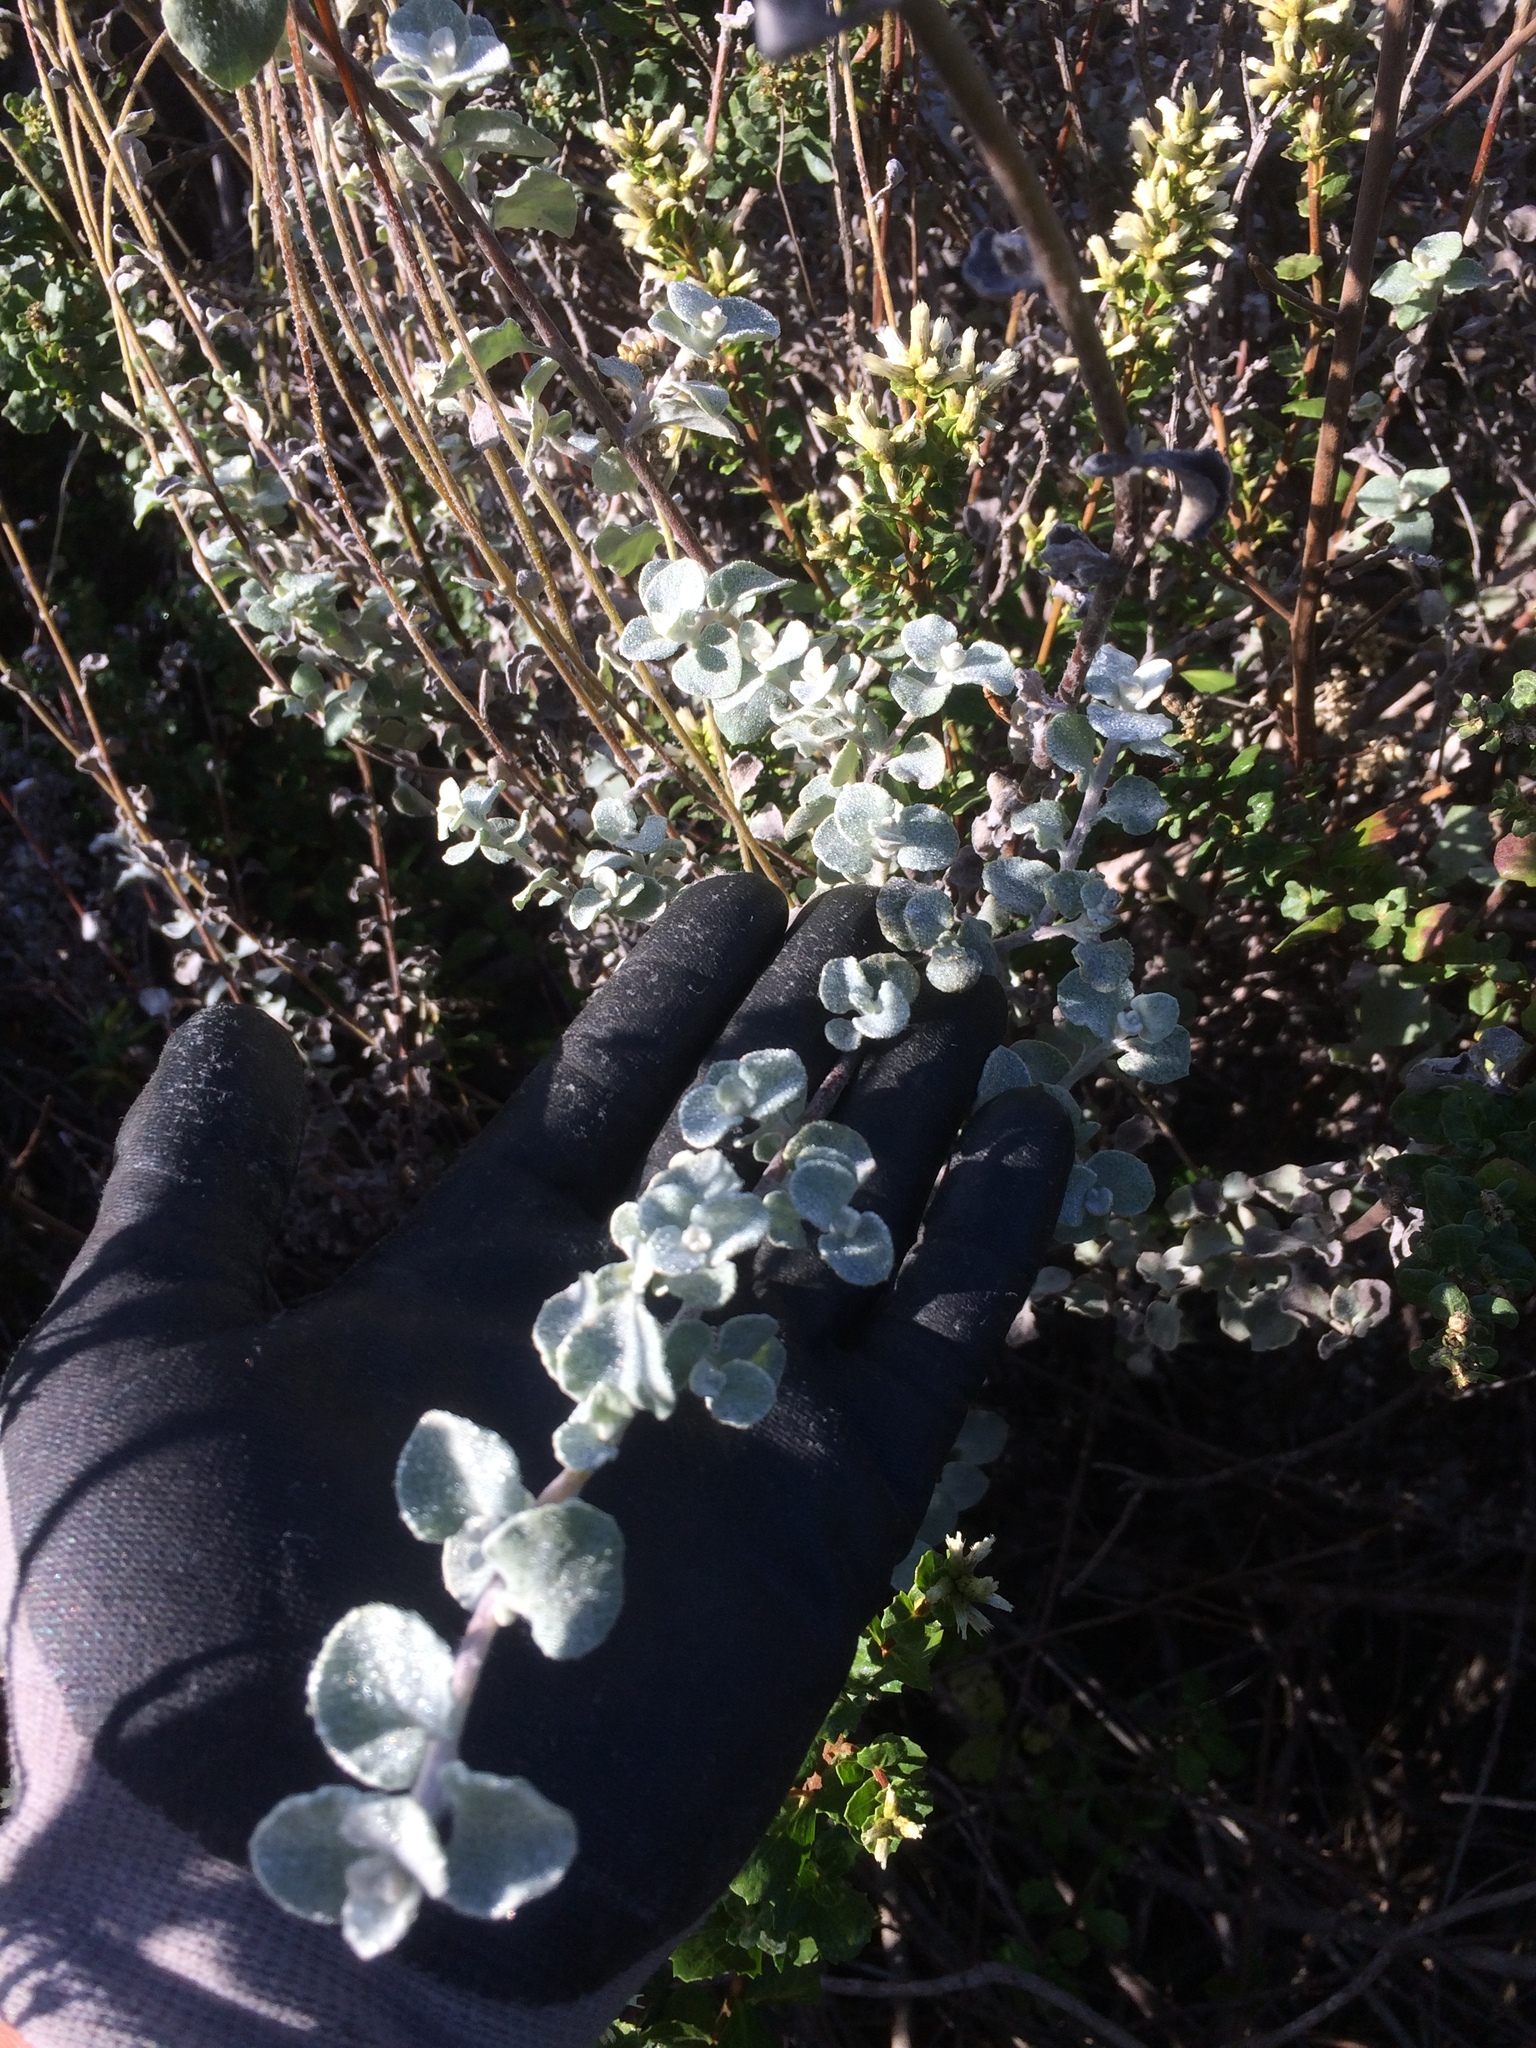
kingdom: Plantae
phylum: Tracheophyta
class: Magnoliopsida
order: Asterales
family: Asteraceae
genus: Helichrysum
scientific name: Helichrysum petiolare
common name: Licorice-plant
